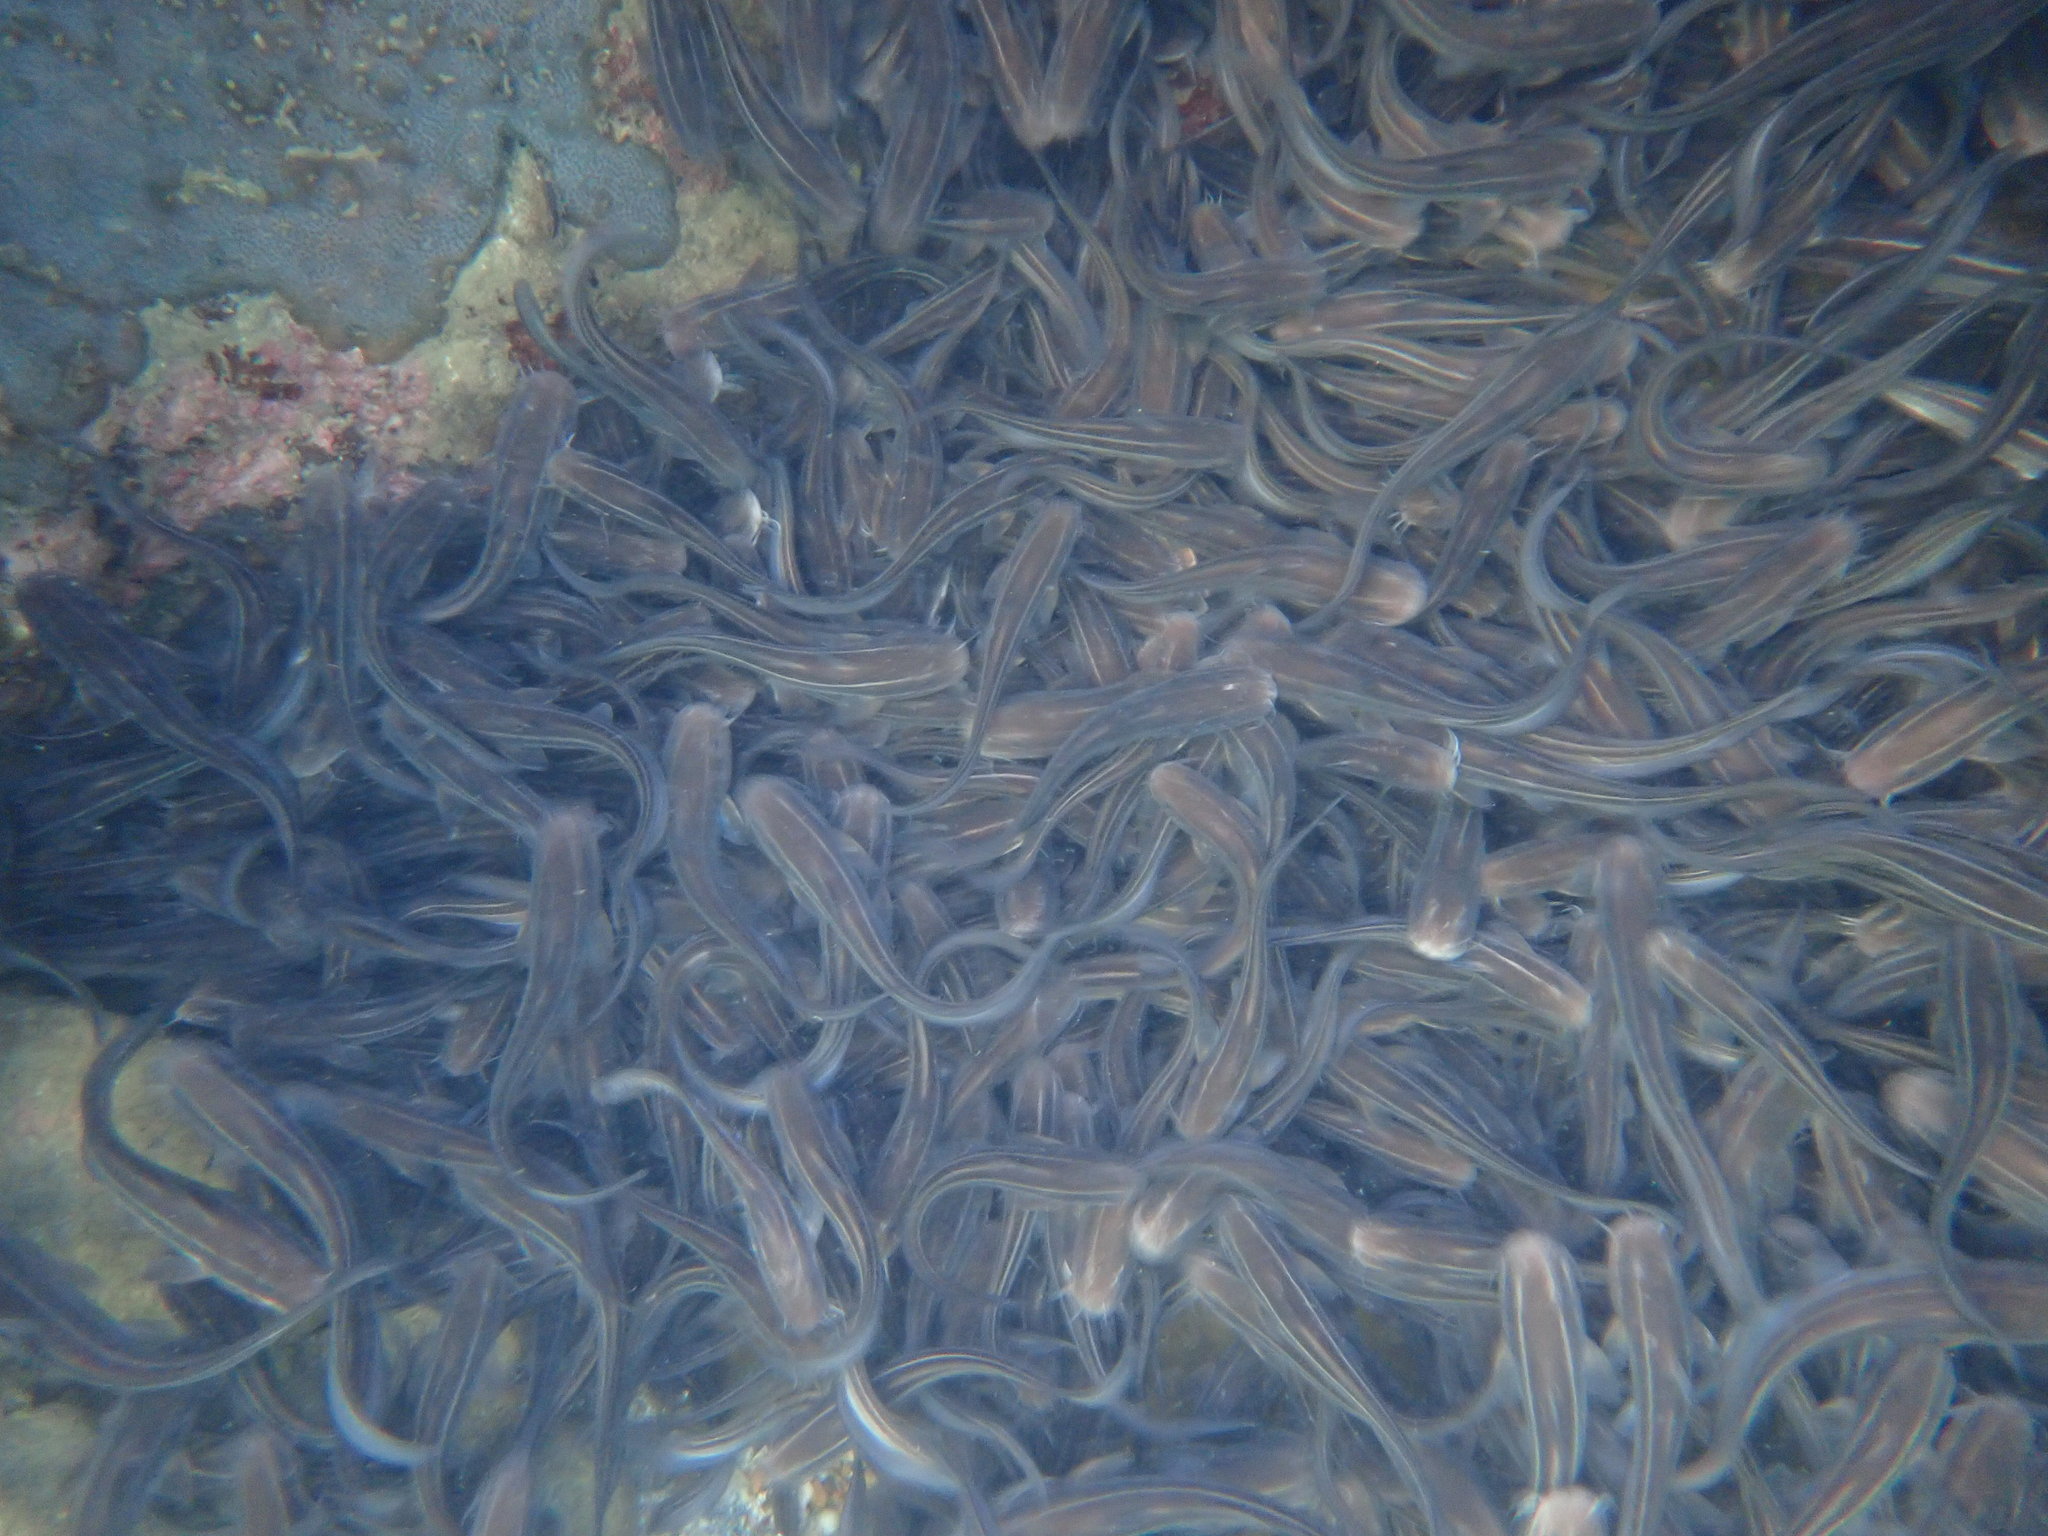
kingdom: Animalia
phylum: Chordata
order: Siluriformes
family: Plotosidae
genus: Plotosus
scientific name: Plotosus lineatus
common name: Striped eel catfish
